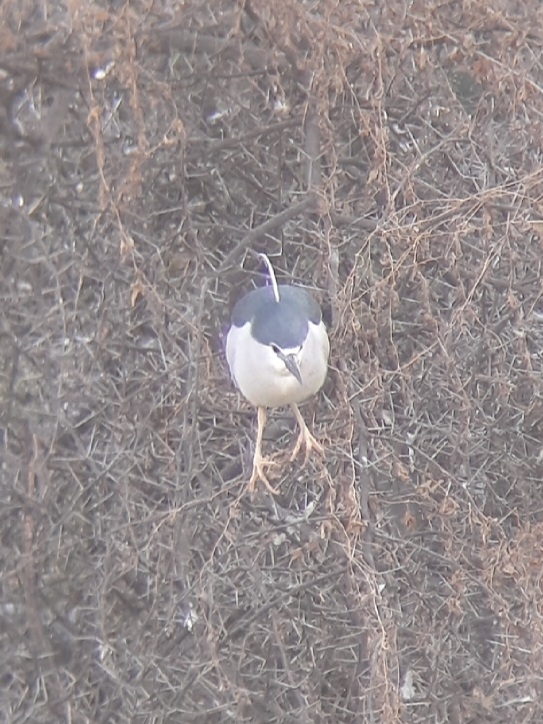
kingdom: Animalia
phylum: Chordata
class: Aves
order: Pelecaniformes
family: Ardeidae
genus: Nycticorax
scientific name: Nycticorax nycticorax
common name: Black-crowned night heron
